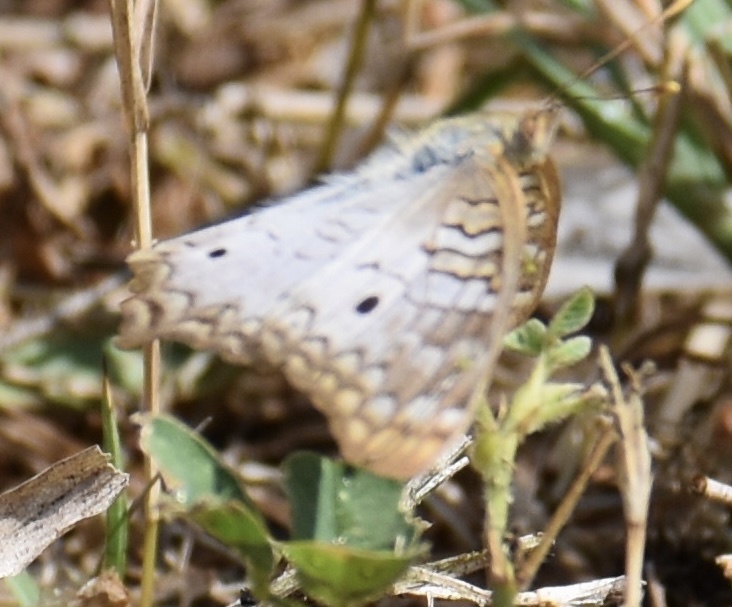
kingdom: Animalia
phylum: Arthropoda
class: Insecta
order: Lepidoptera
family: Nymphalidae
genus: Anartia
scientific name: Anartia jatrophae
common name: White peacock
